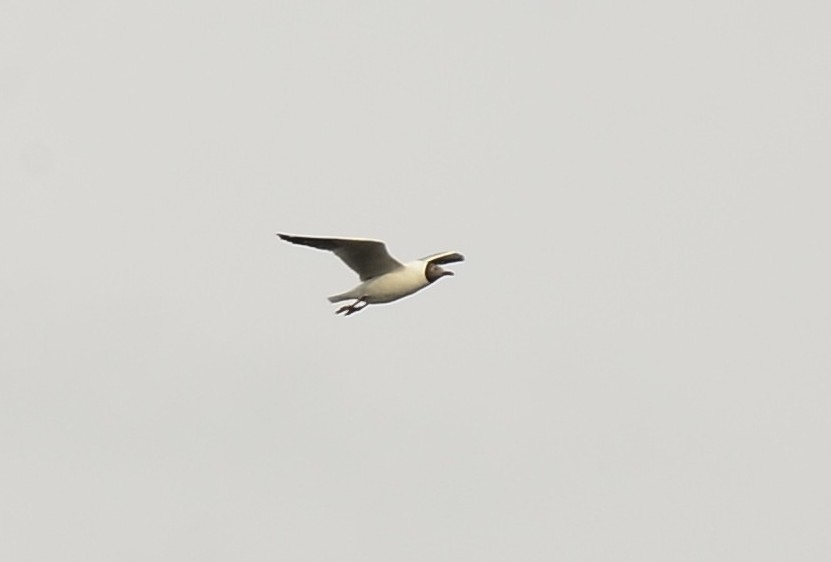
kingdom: Animalia
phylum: Chordata
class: Aves
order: Charadriiformes
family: Laridae
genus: Chroicocephalus
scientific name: Chroicocephalus brunnicephalus
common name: Brown-headed gull
